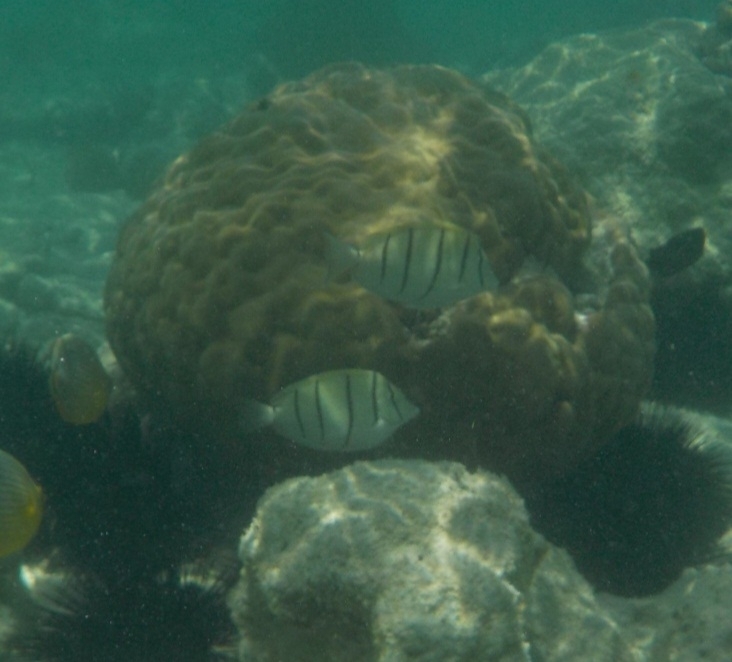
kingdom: Animalia
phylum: Chordata
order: Perciformes
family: Acanthuridae
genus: Acanthurus
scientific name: Acanthurus triostegus
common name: Convict surgeonfish
